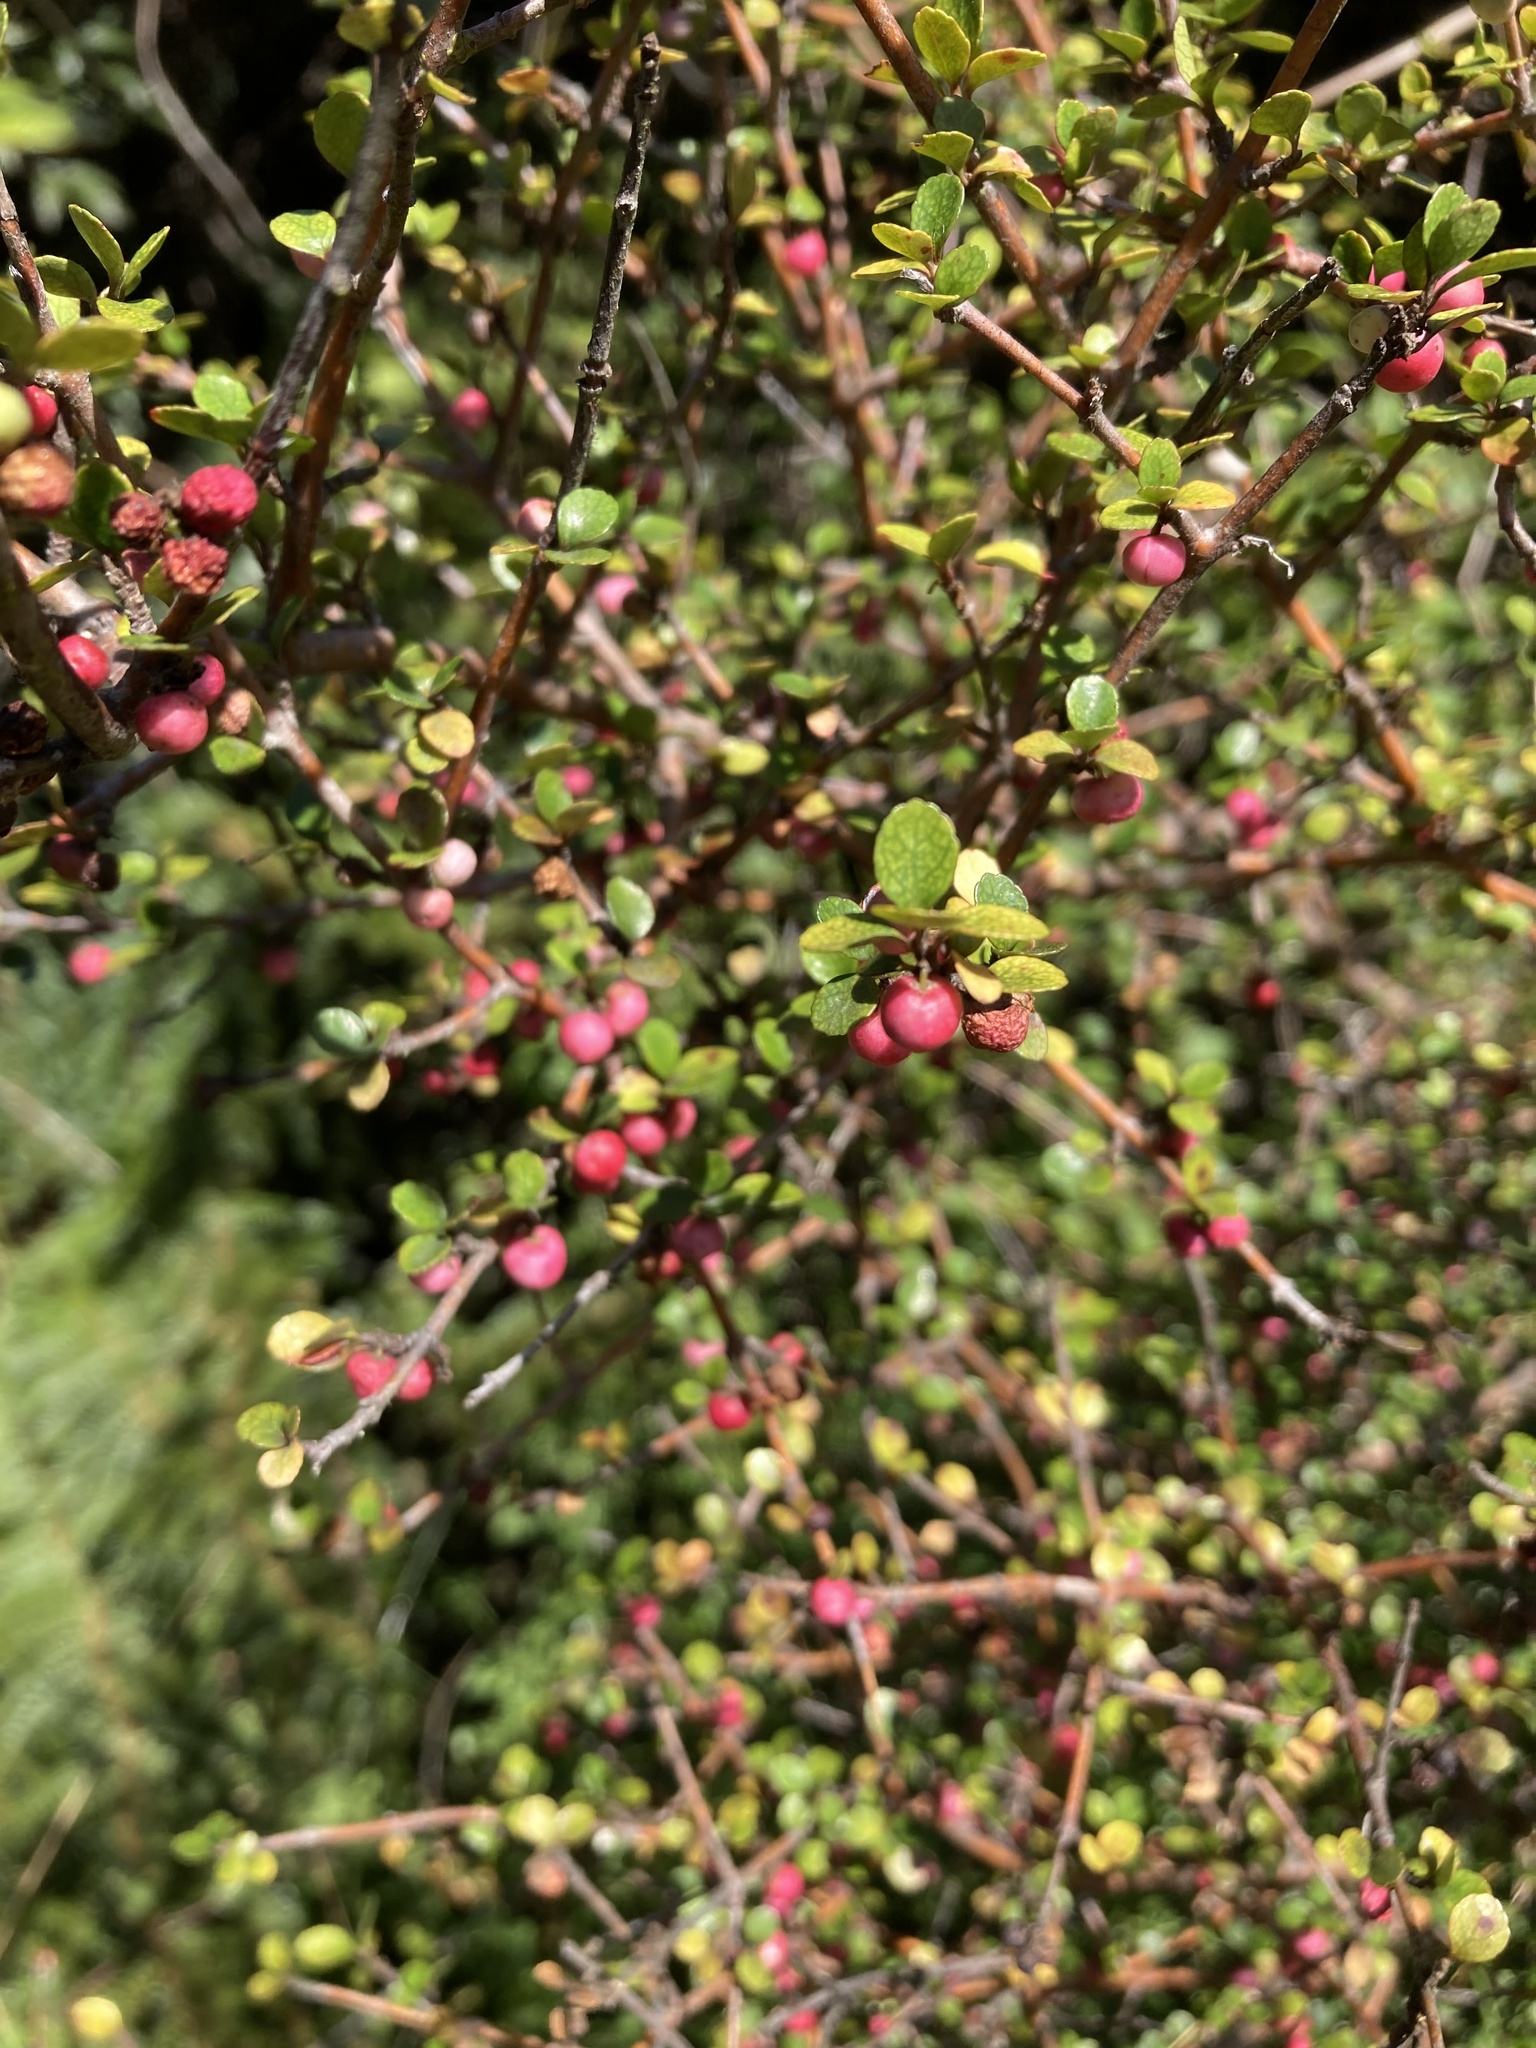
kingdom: Plantae
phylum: Tracheophyta
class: Magnoliopsida
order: Oxalidales
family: Elaeocarpaceae
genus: Aristotelia
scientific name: Aristotelia fruticosa
